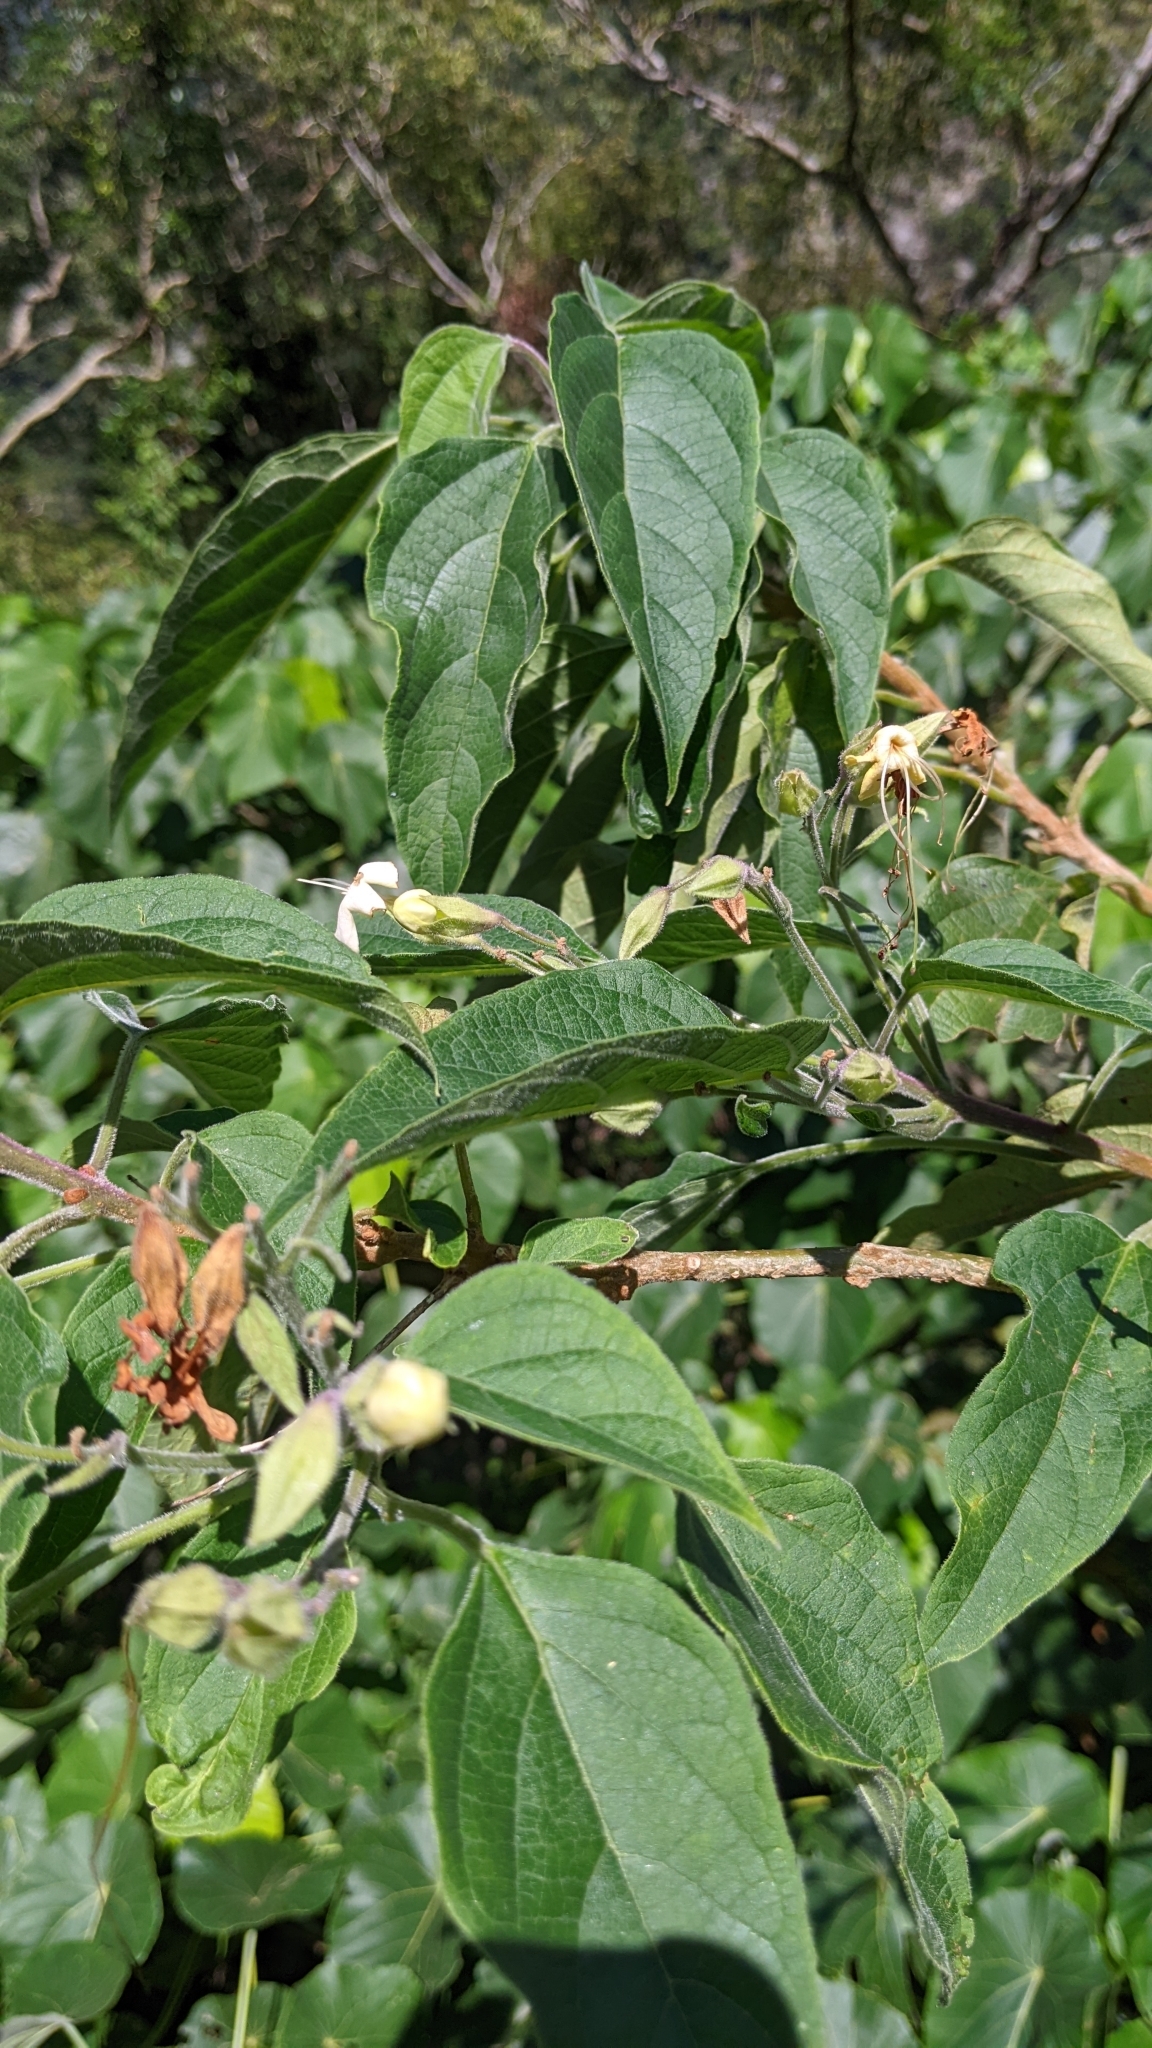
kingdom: Plantae
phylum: Tracheophyta
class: Magnoliopsida
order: Lamiales
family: Lamiaceae
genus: Clerodendrum
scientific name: Clerodendrum trichotomum
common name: Harlequin glorybower
